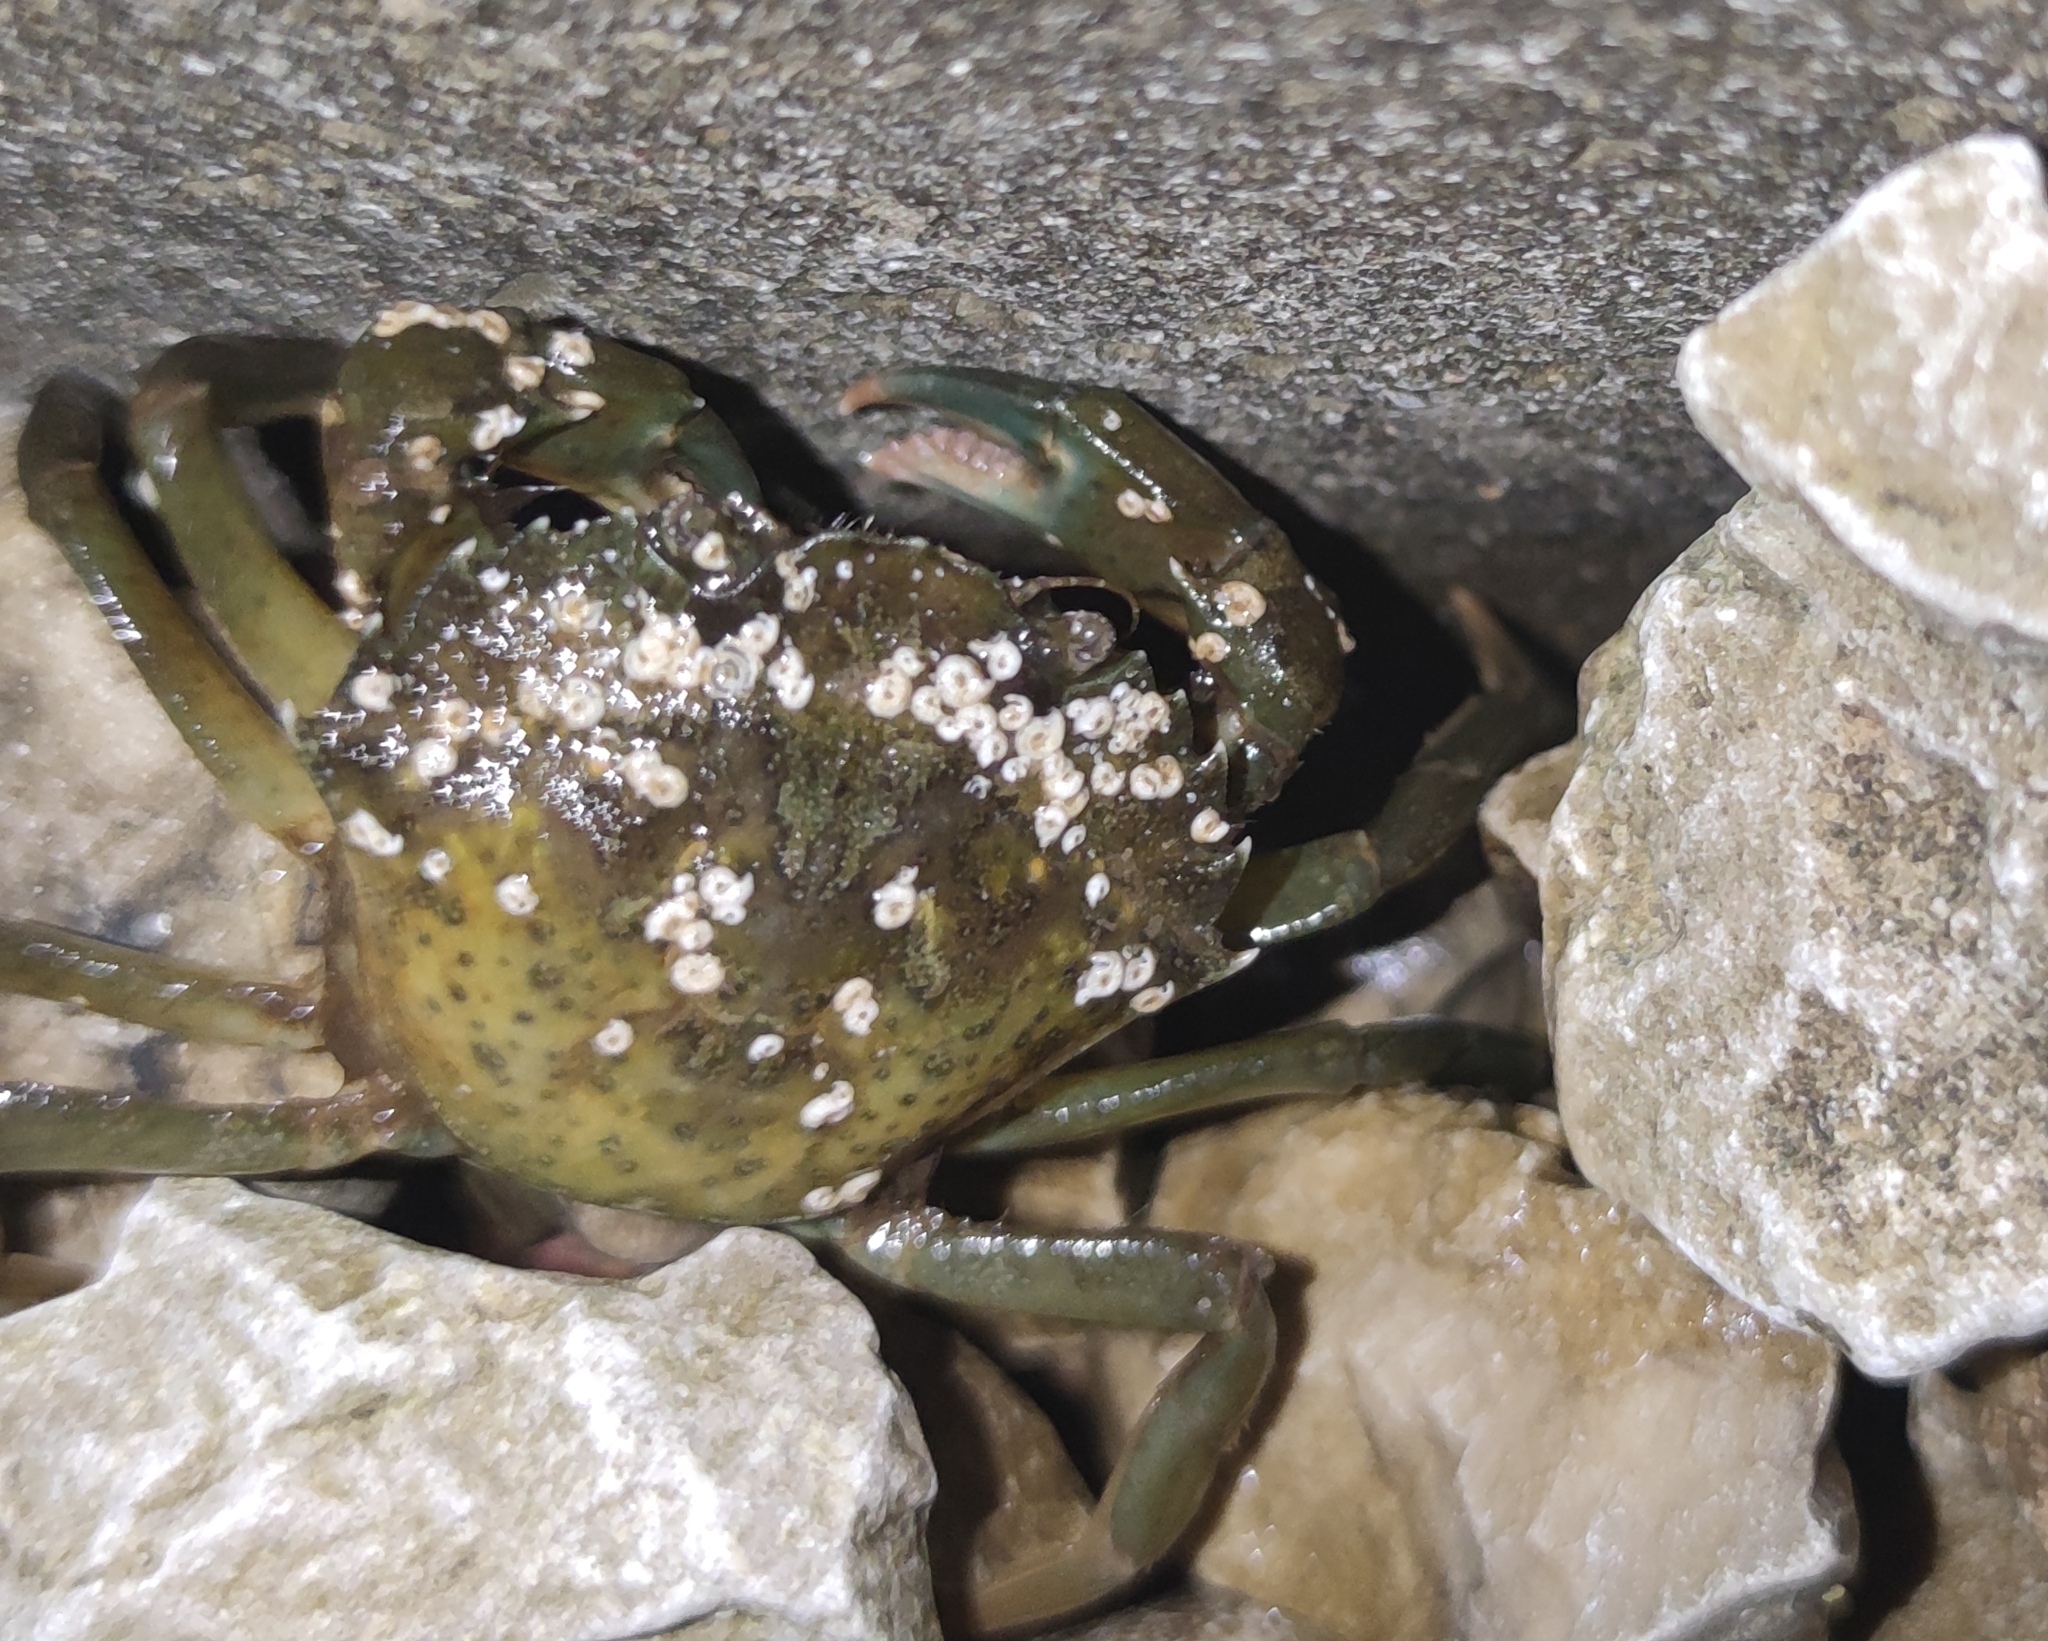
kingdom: Animalia
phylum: Arthropoda
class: Malacostraca
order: Decapoda
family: Carcinidae
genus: Carcinus
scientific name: Carcinus aestuarii
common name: Mediterranean green crab
